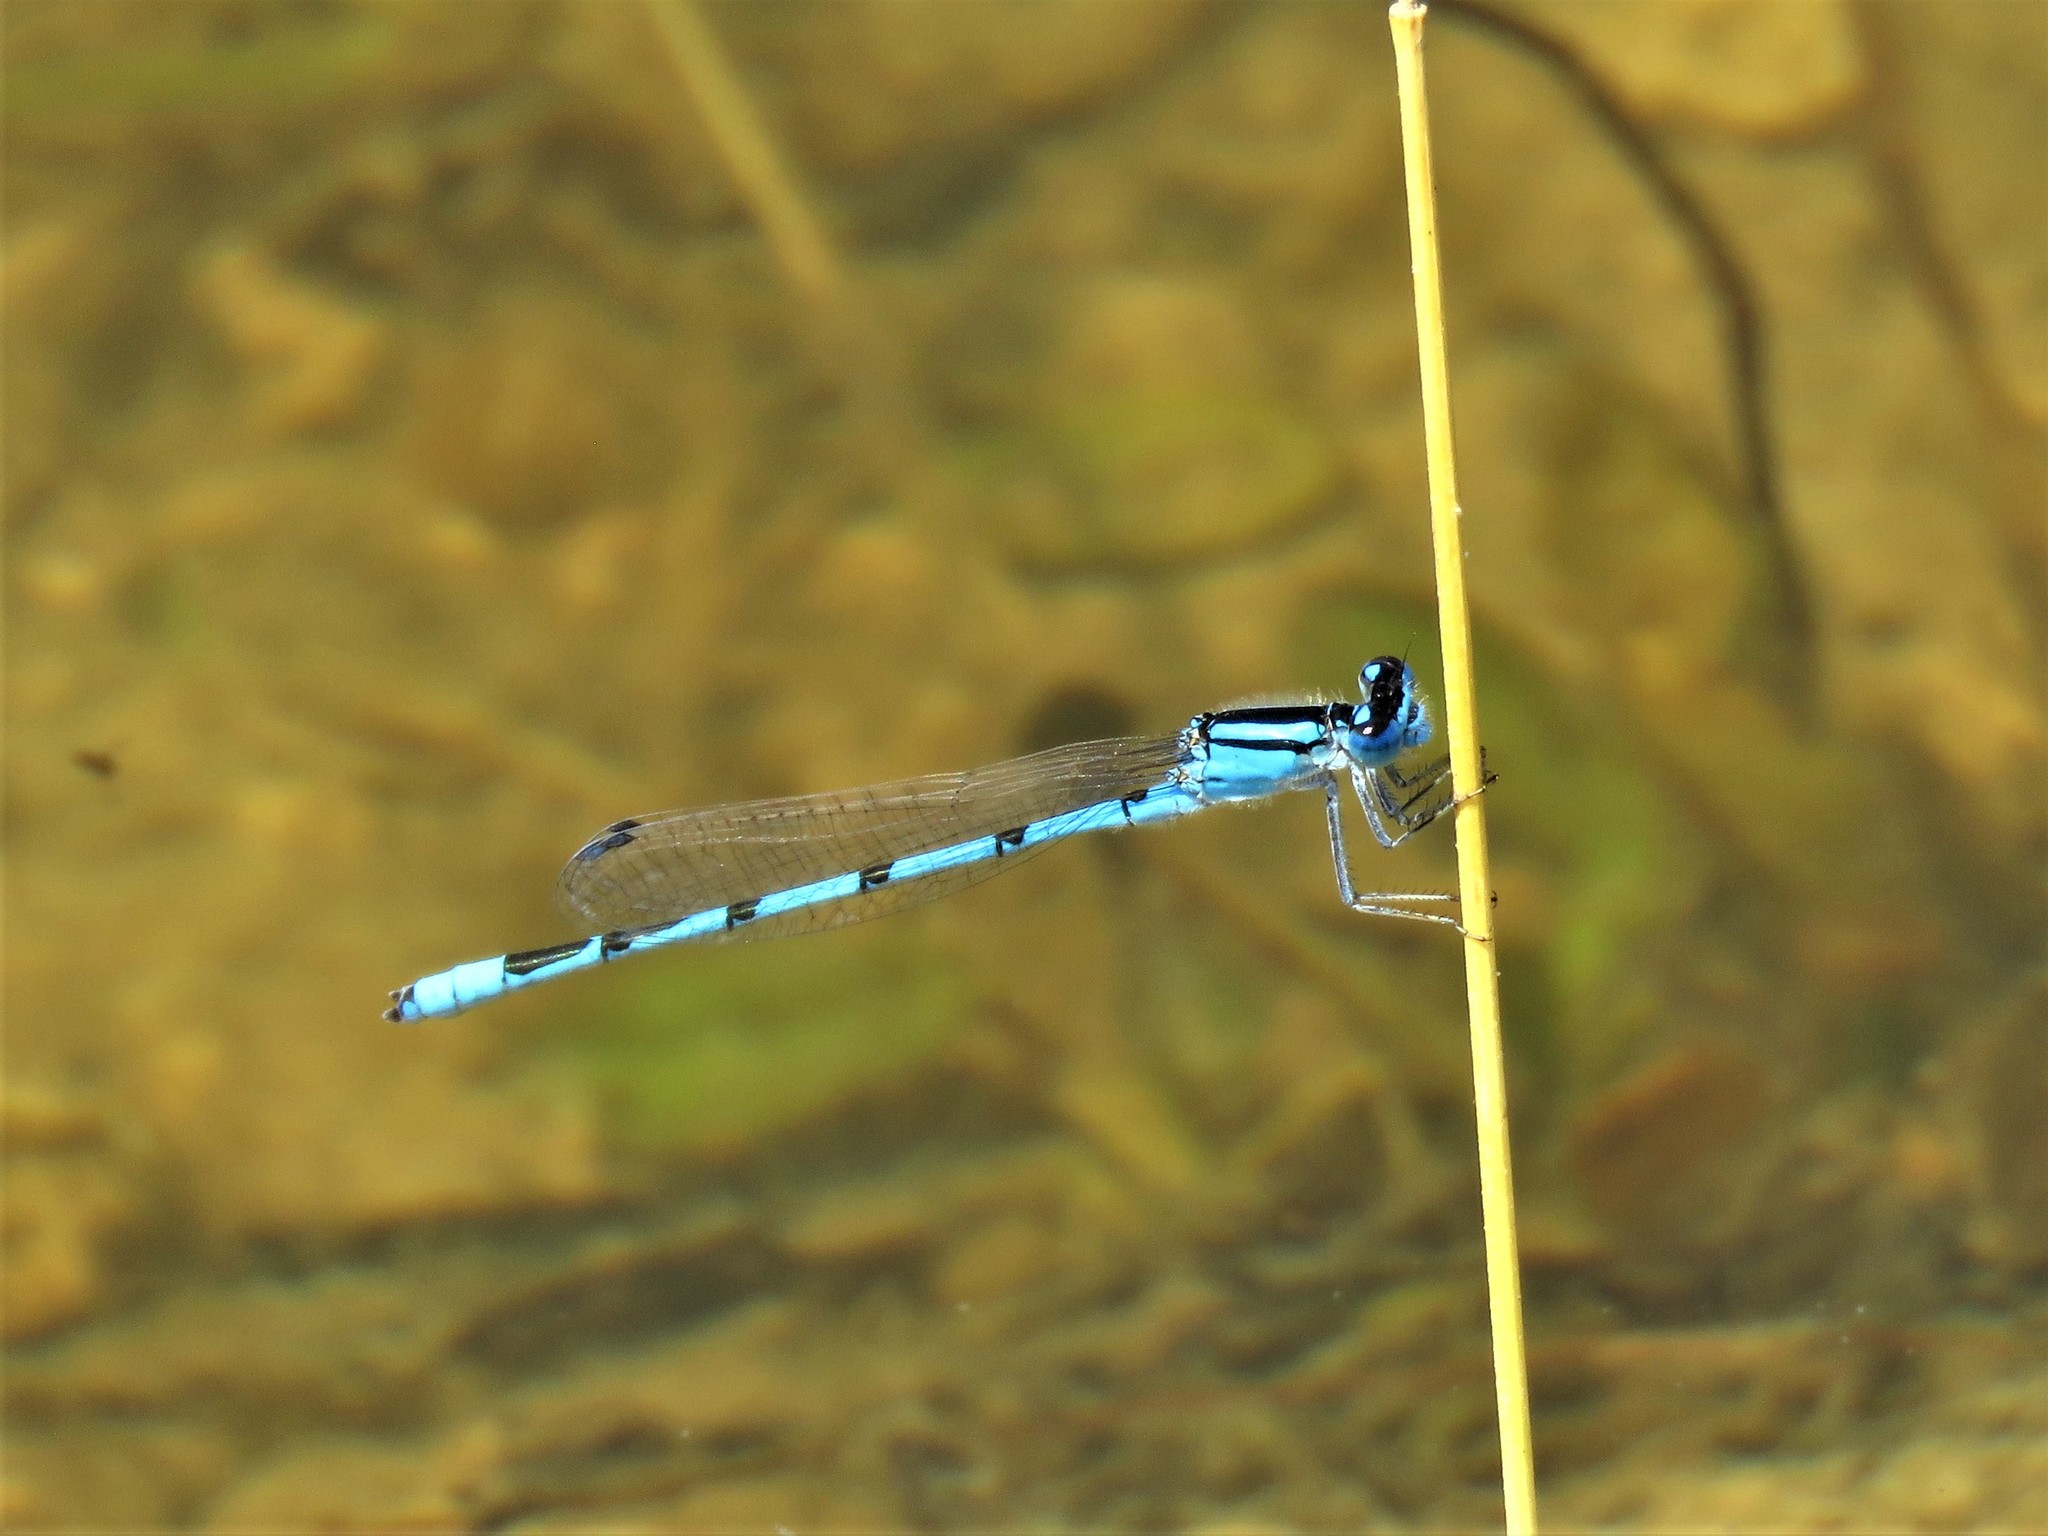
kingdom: Animalia
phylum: Arthropoda
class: Insecta
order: Odonata
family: Coenagrionidae
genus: Enallagma
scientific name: Enallagma civile
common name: Damselfly
